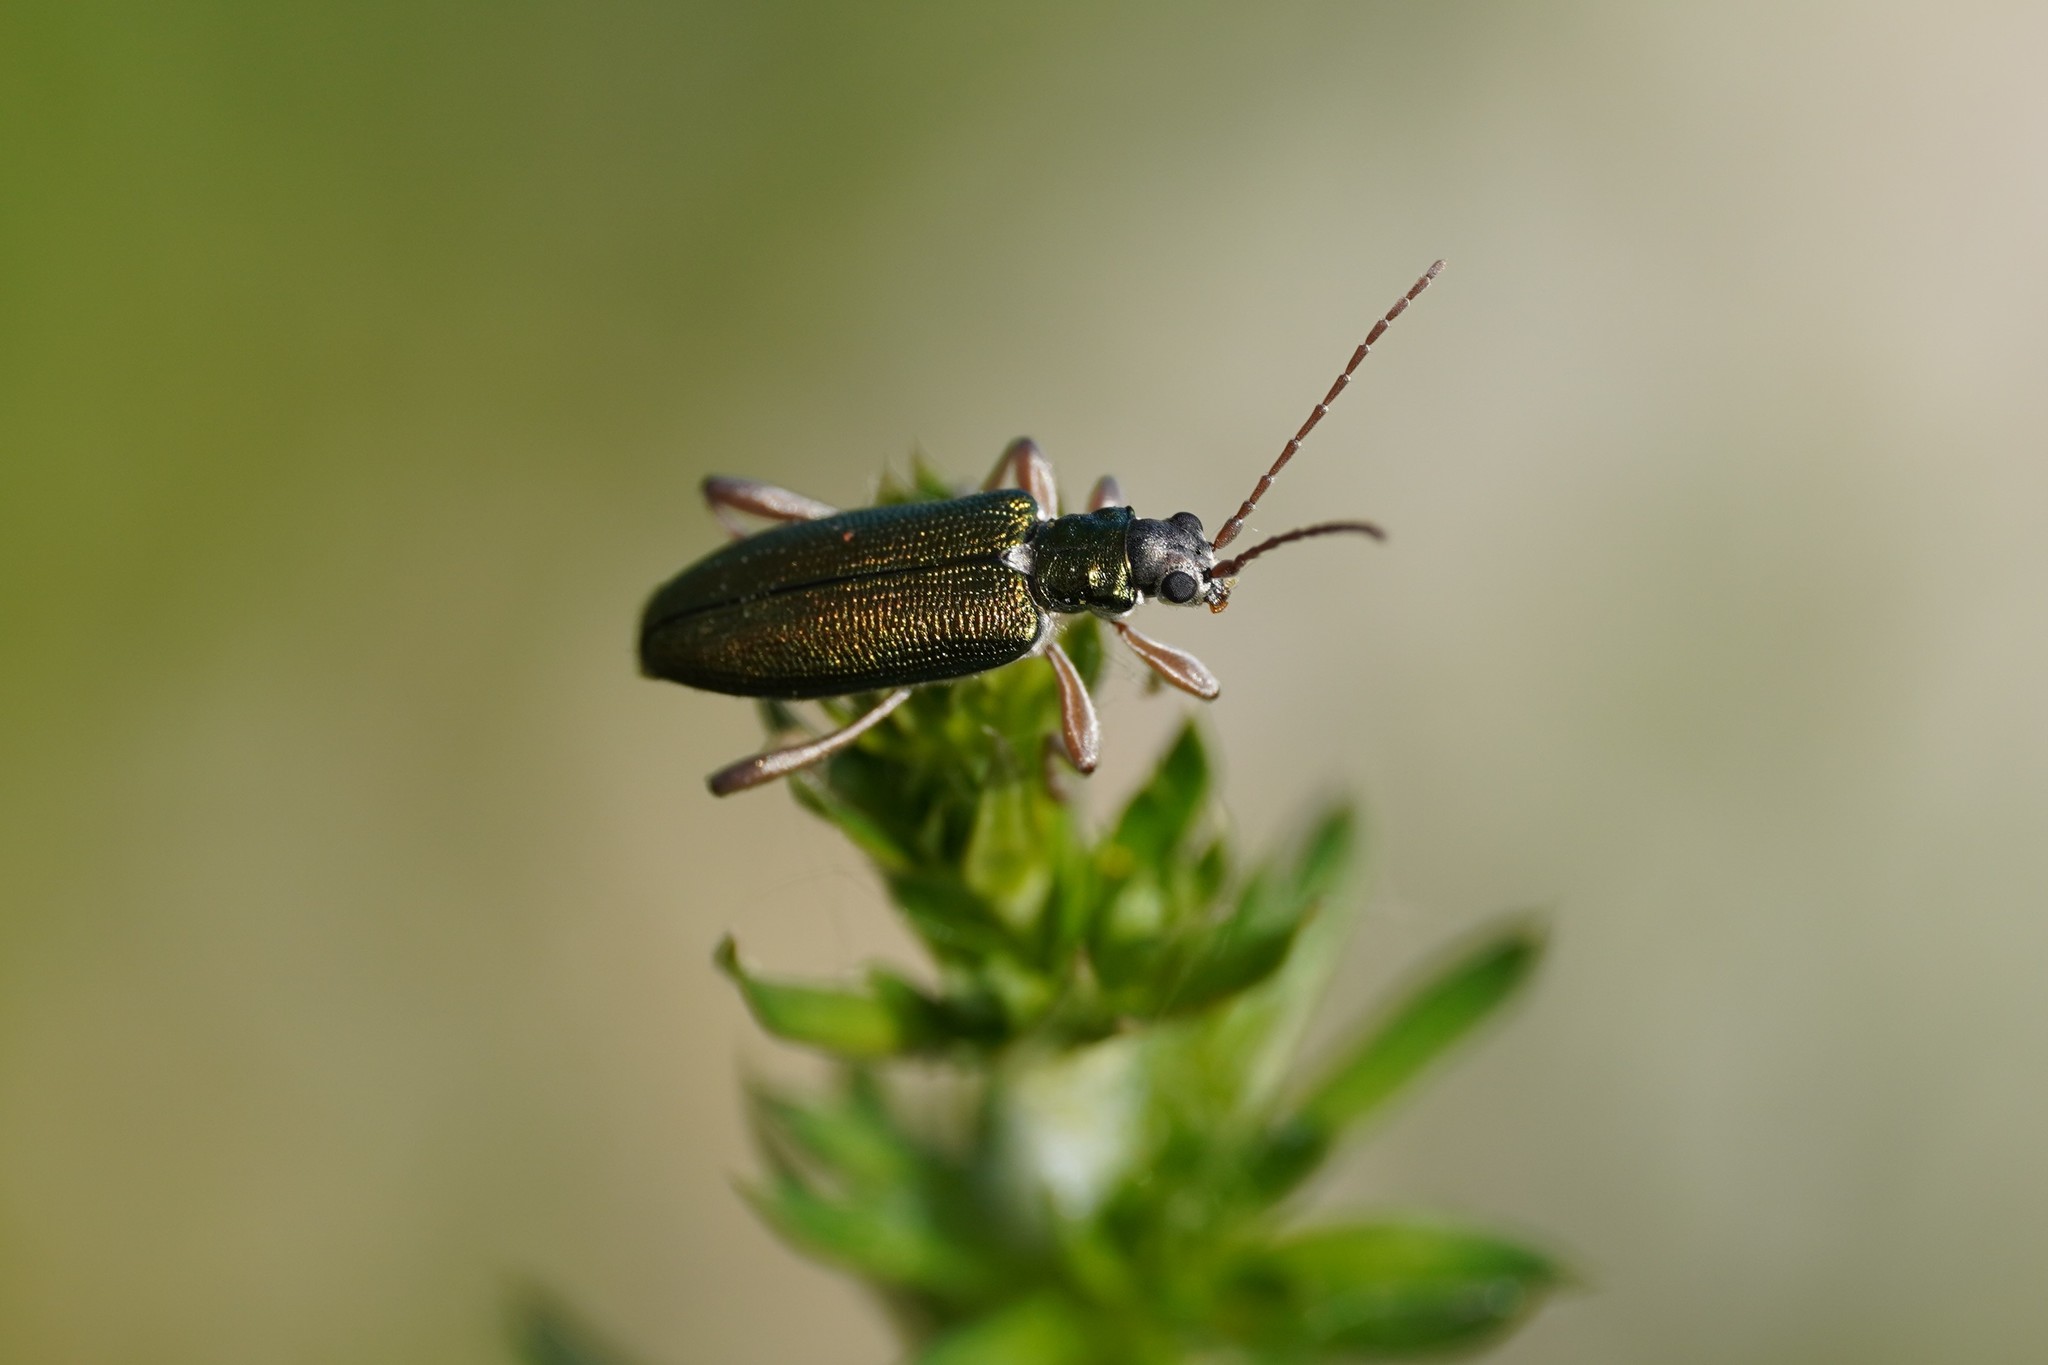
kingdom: Animalia
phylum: Arthropoda
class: Insecta
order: Coleoptera
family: Chrysomelidae
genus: Donacia
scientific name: Donacia clavipes
